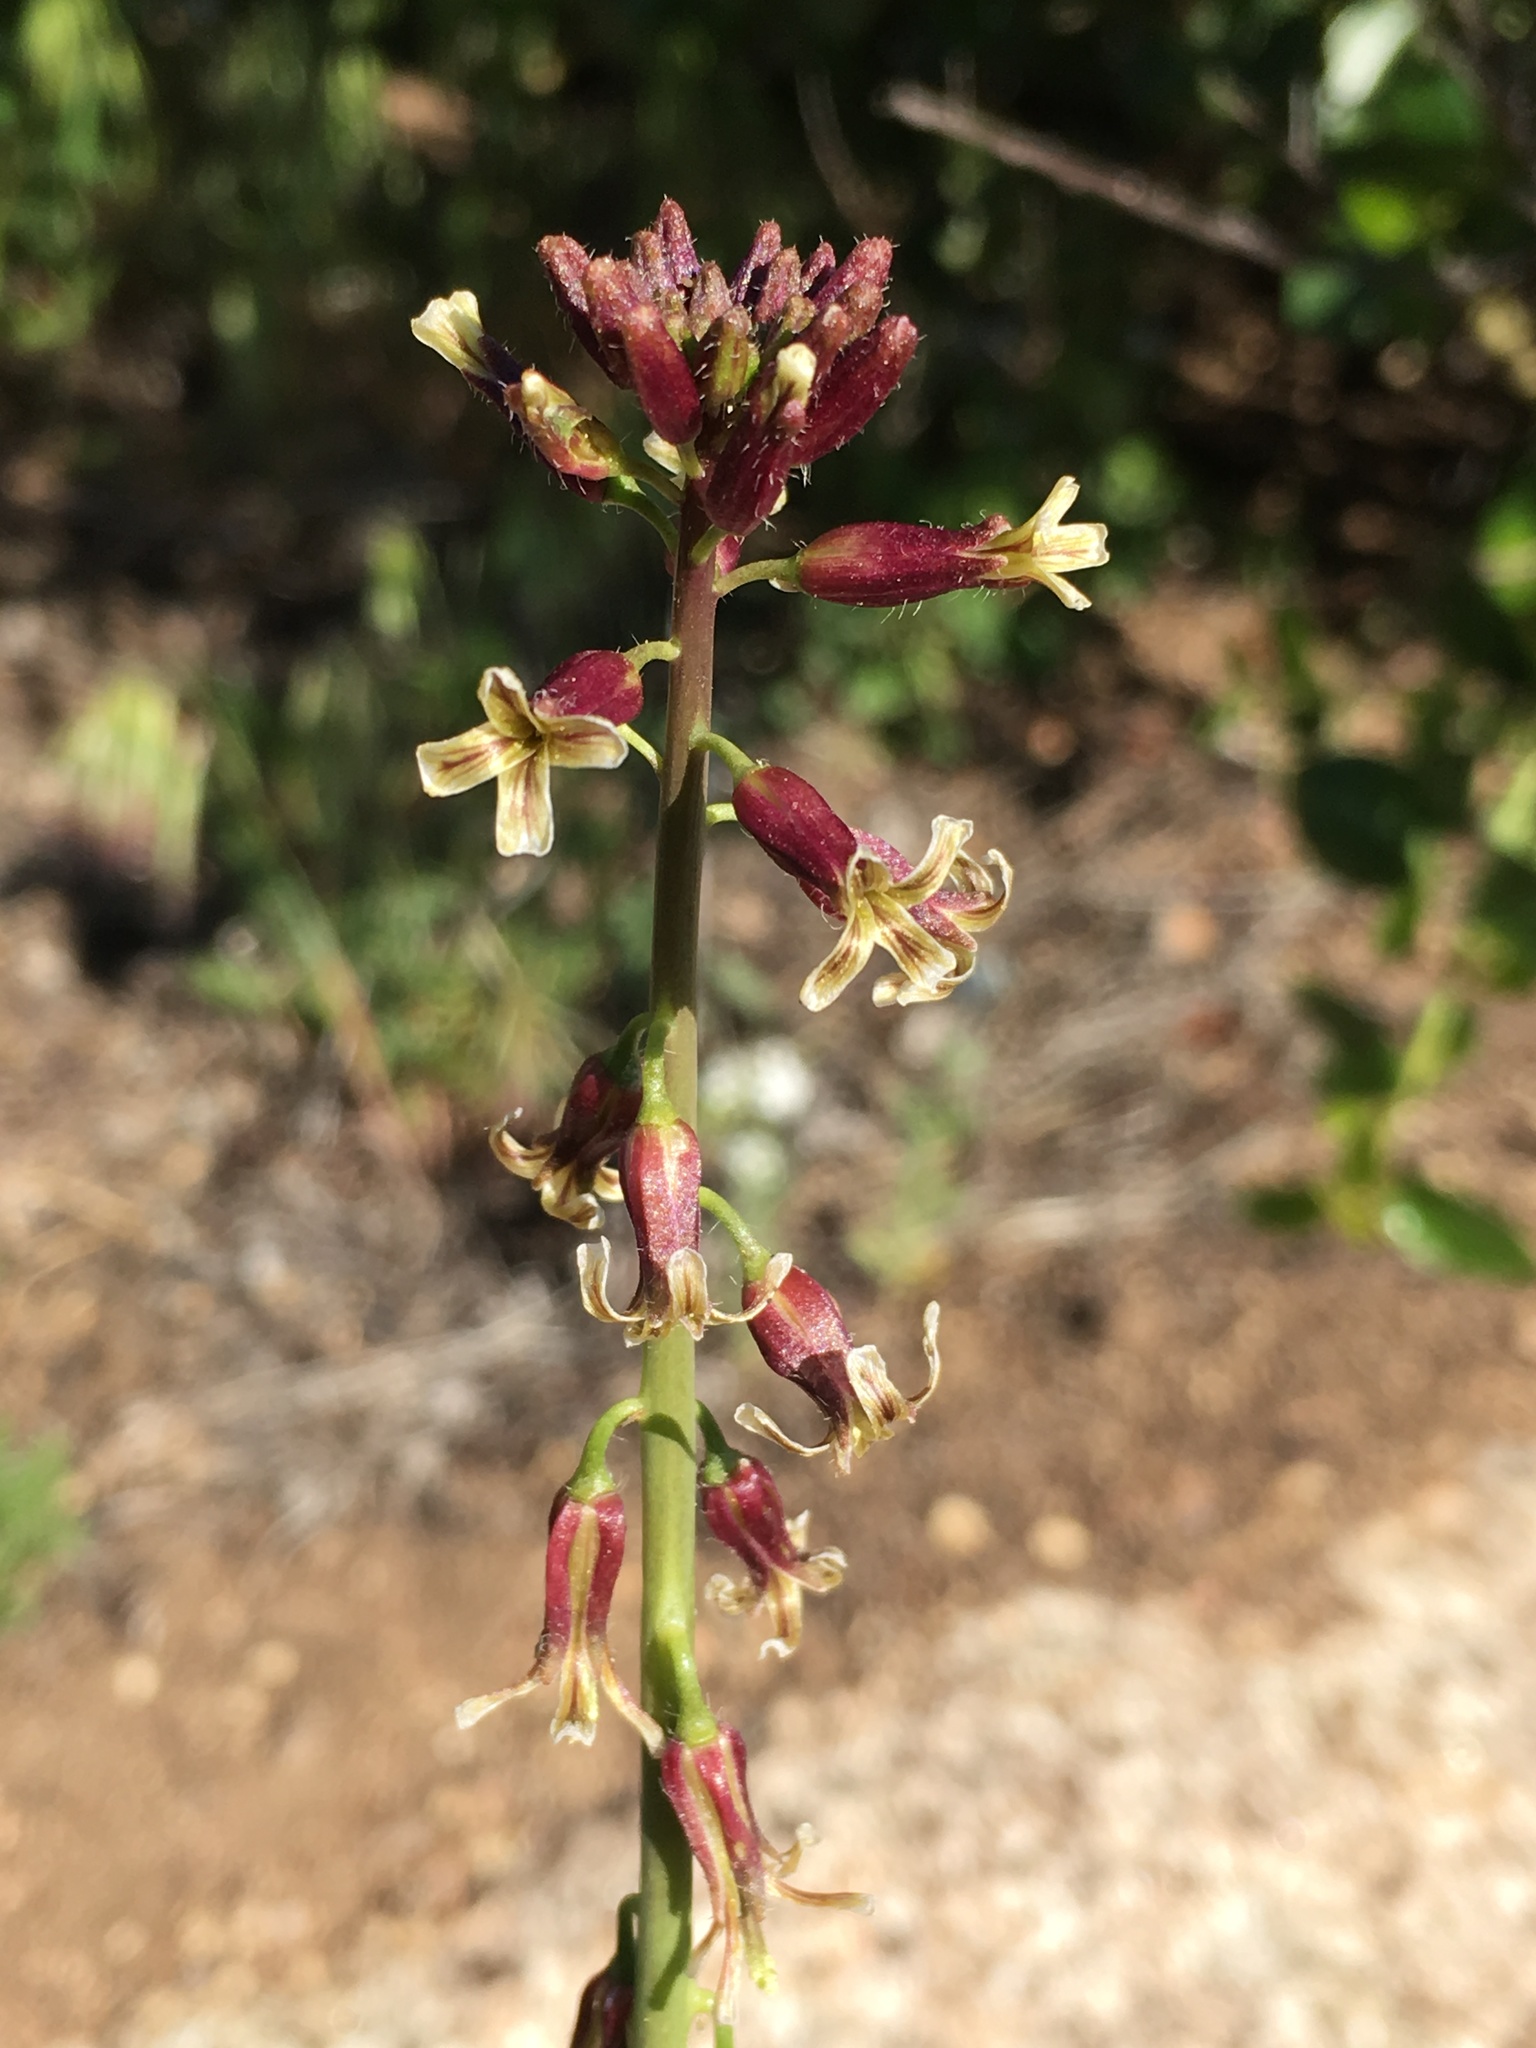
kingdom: Plantae
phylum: Tracheophyta
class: Magnoliopsida
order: Brassicales
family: Brassicaceae
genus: Streptanthus
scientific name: Streptanthus heterophyllus
